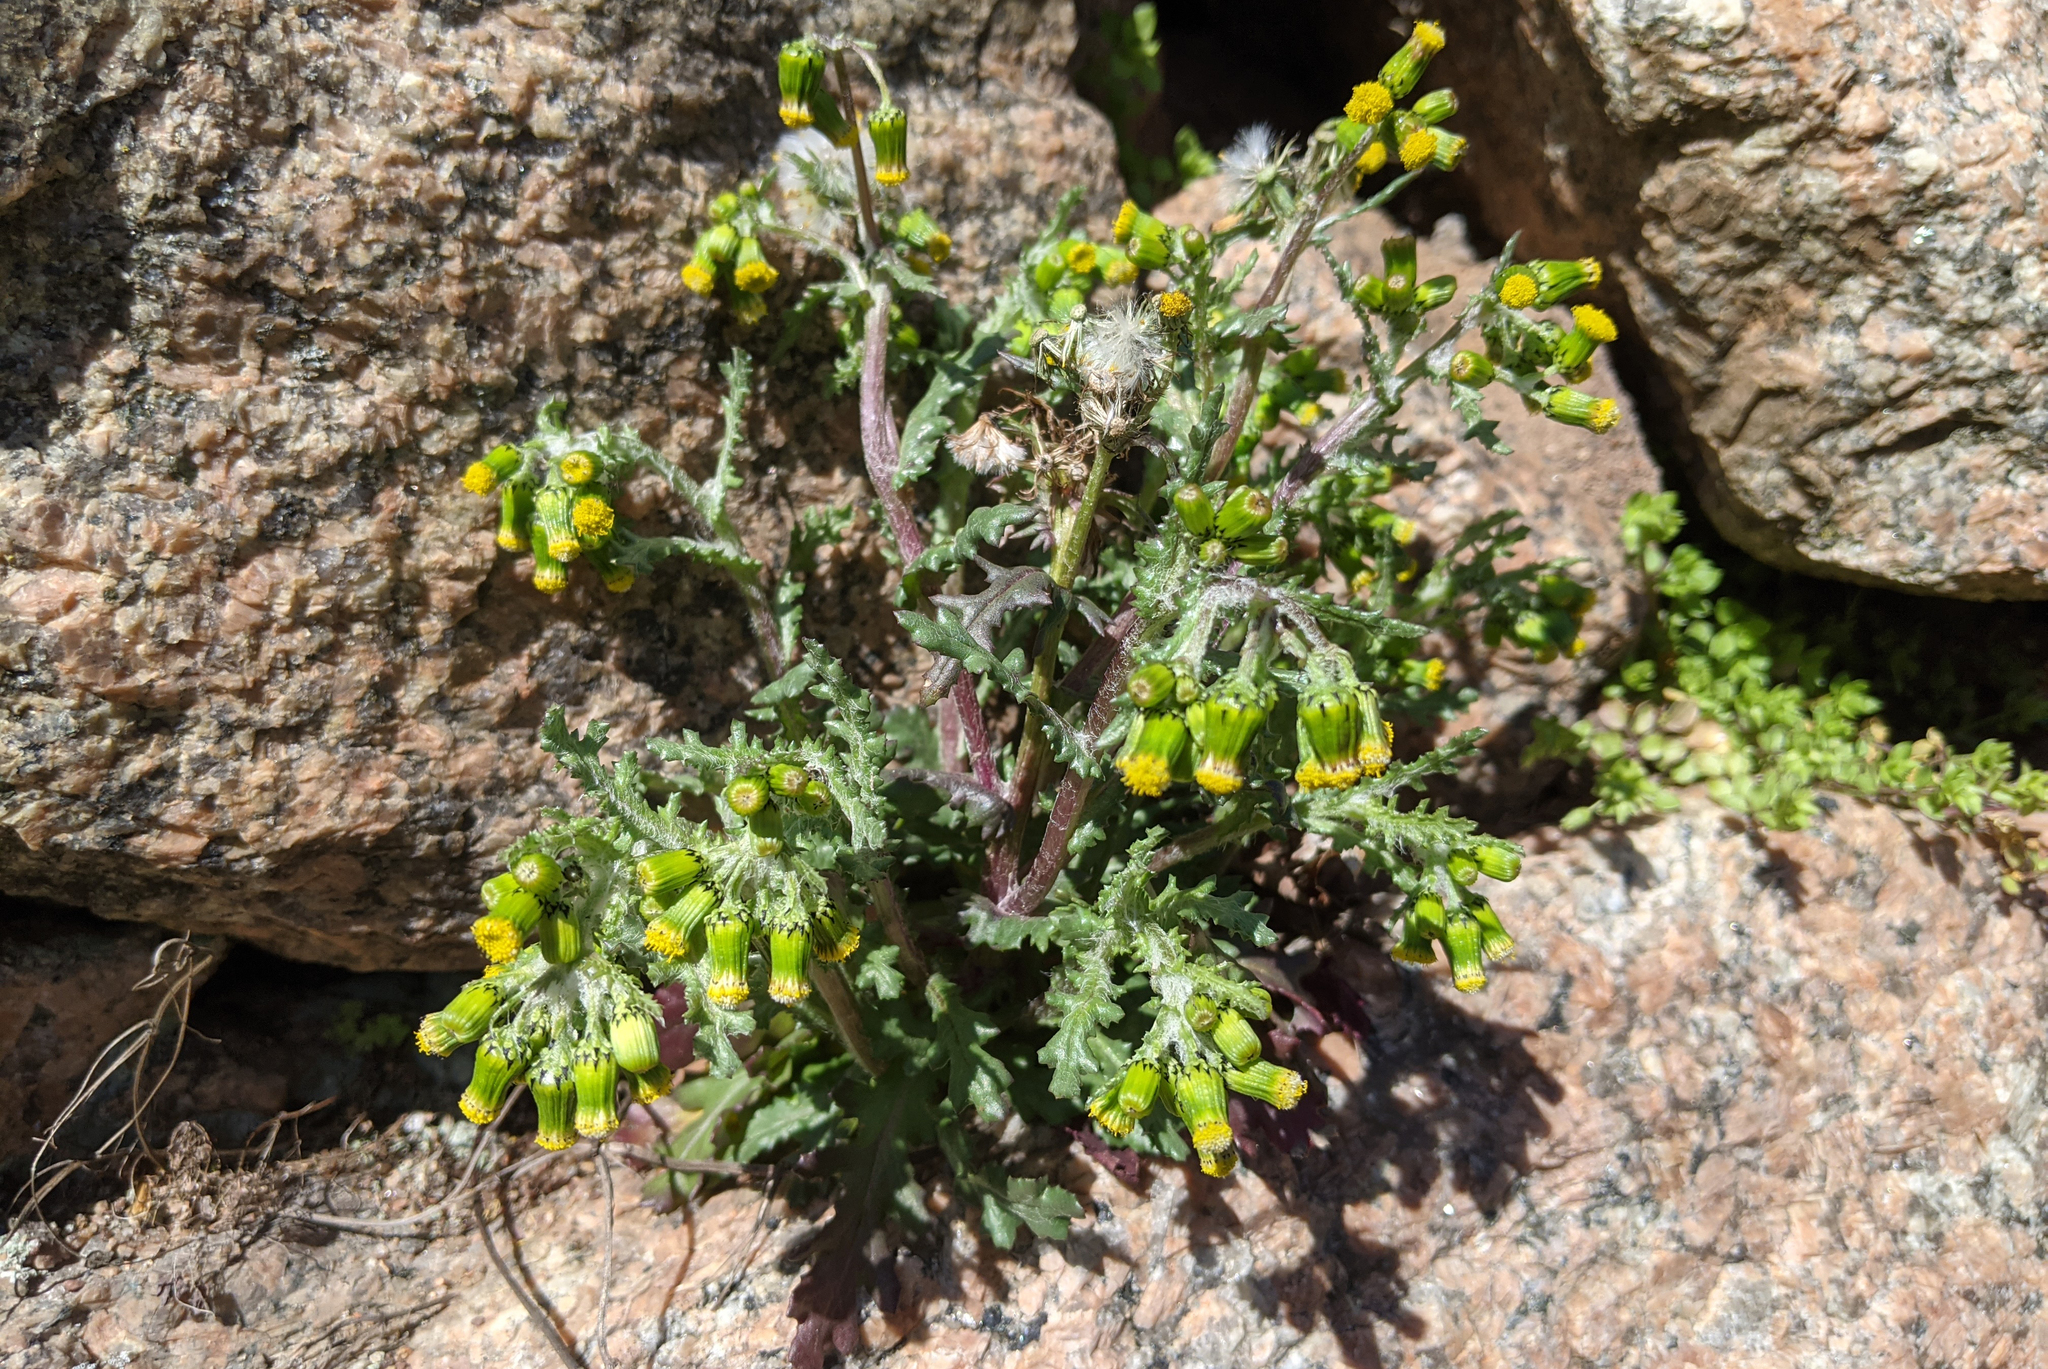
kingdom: Plantae
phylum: Tracheophyta
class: Magnoliopsida
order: Asterales
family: Asteraceae
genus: Senecio
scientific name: Senecio vulgaris
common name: Old-man-in-the-spring
